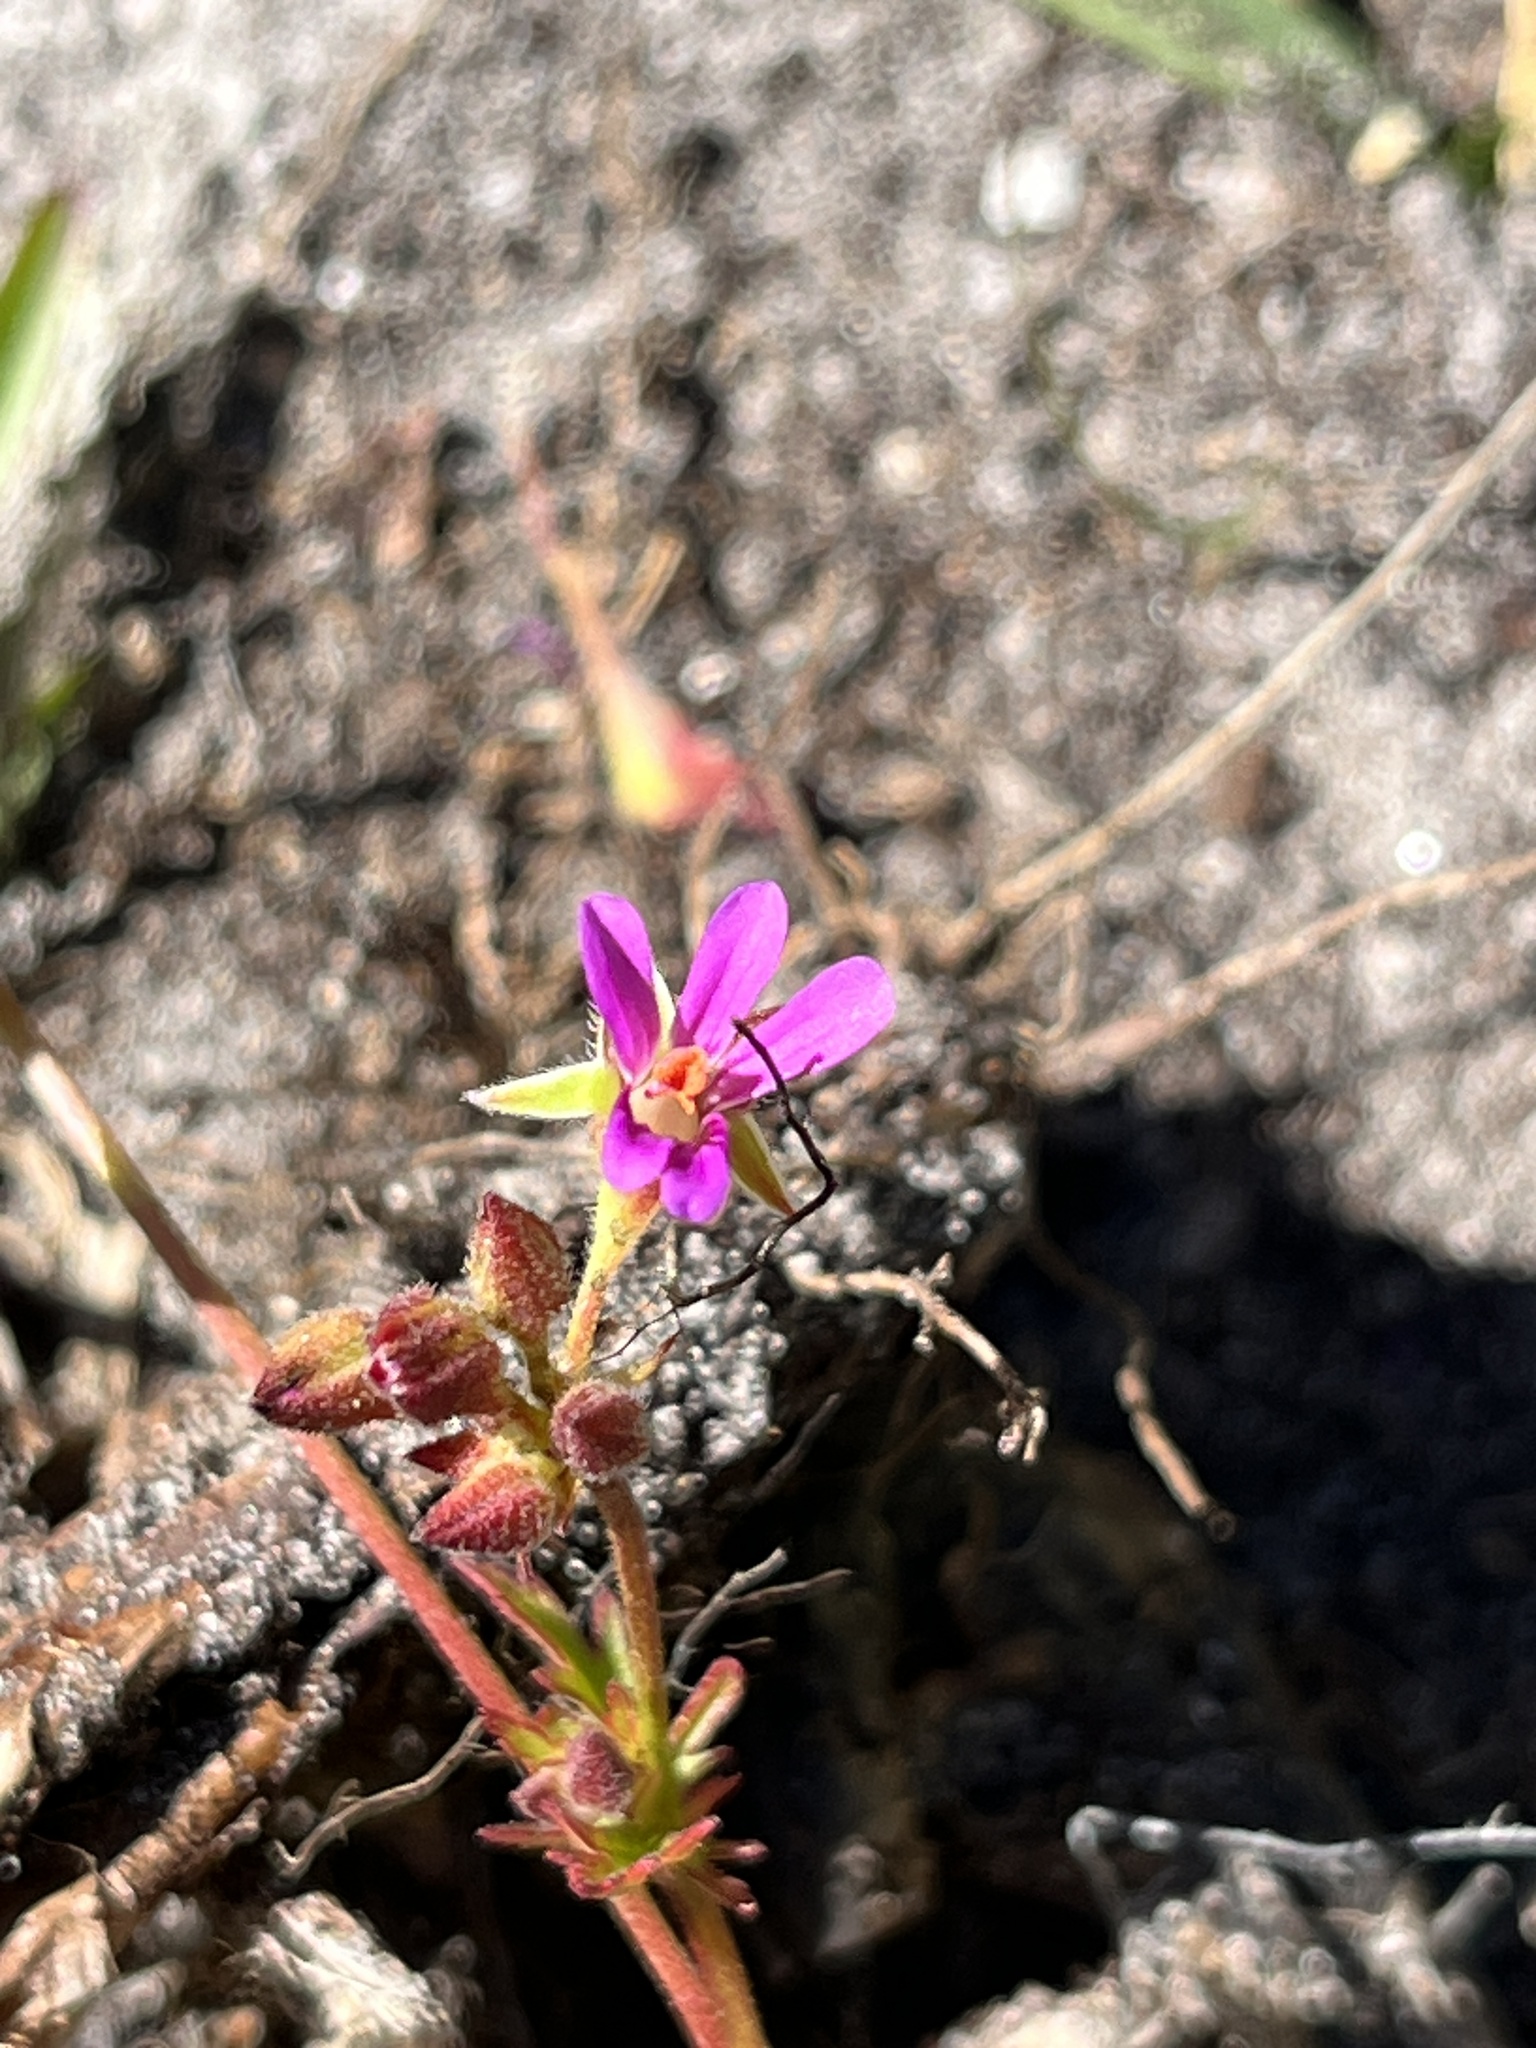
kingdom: Plantae
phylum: Tracheophyta
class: Magnoliopsida
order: Geraniales
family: Geraniaceae
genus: Pelargonium
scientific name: Pelargonium grossularioides
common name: Gooseberry geranium
